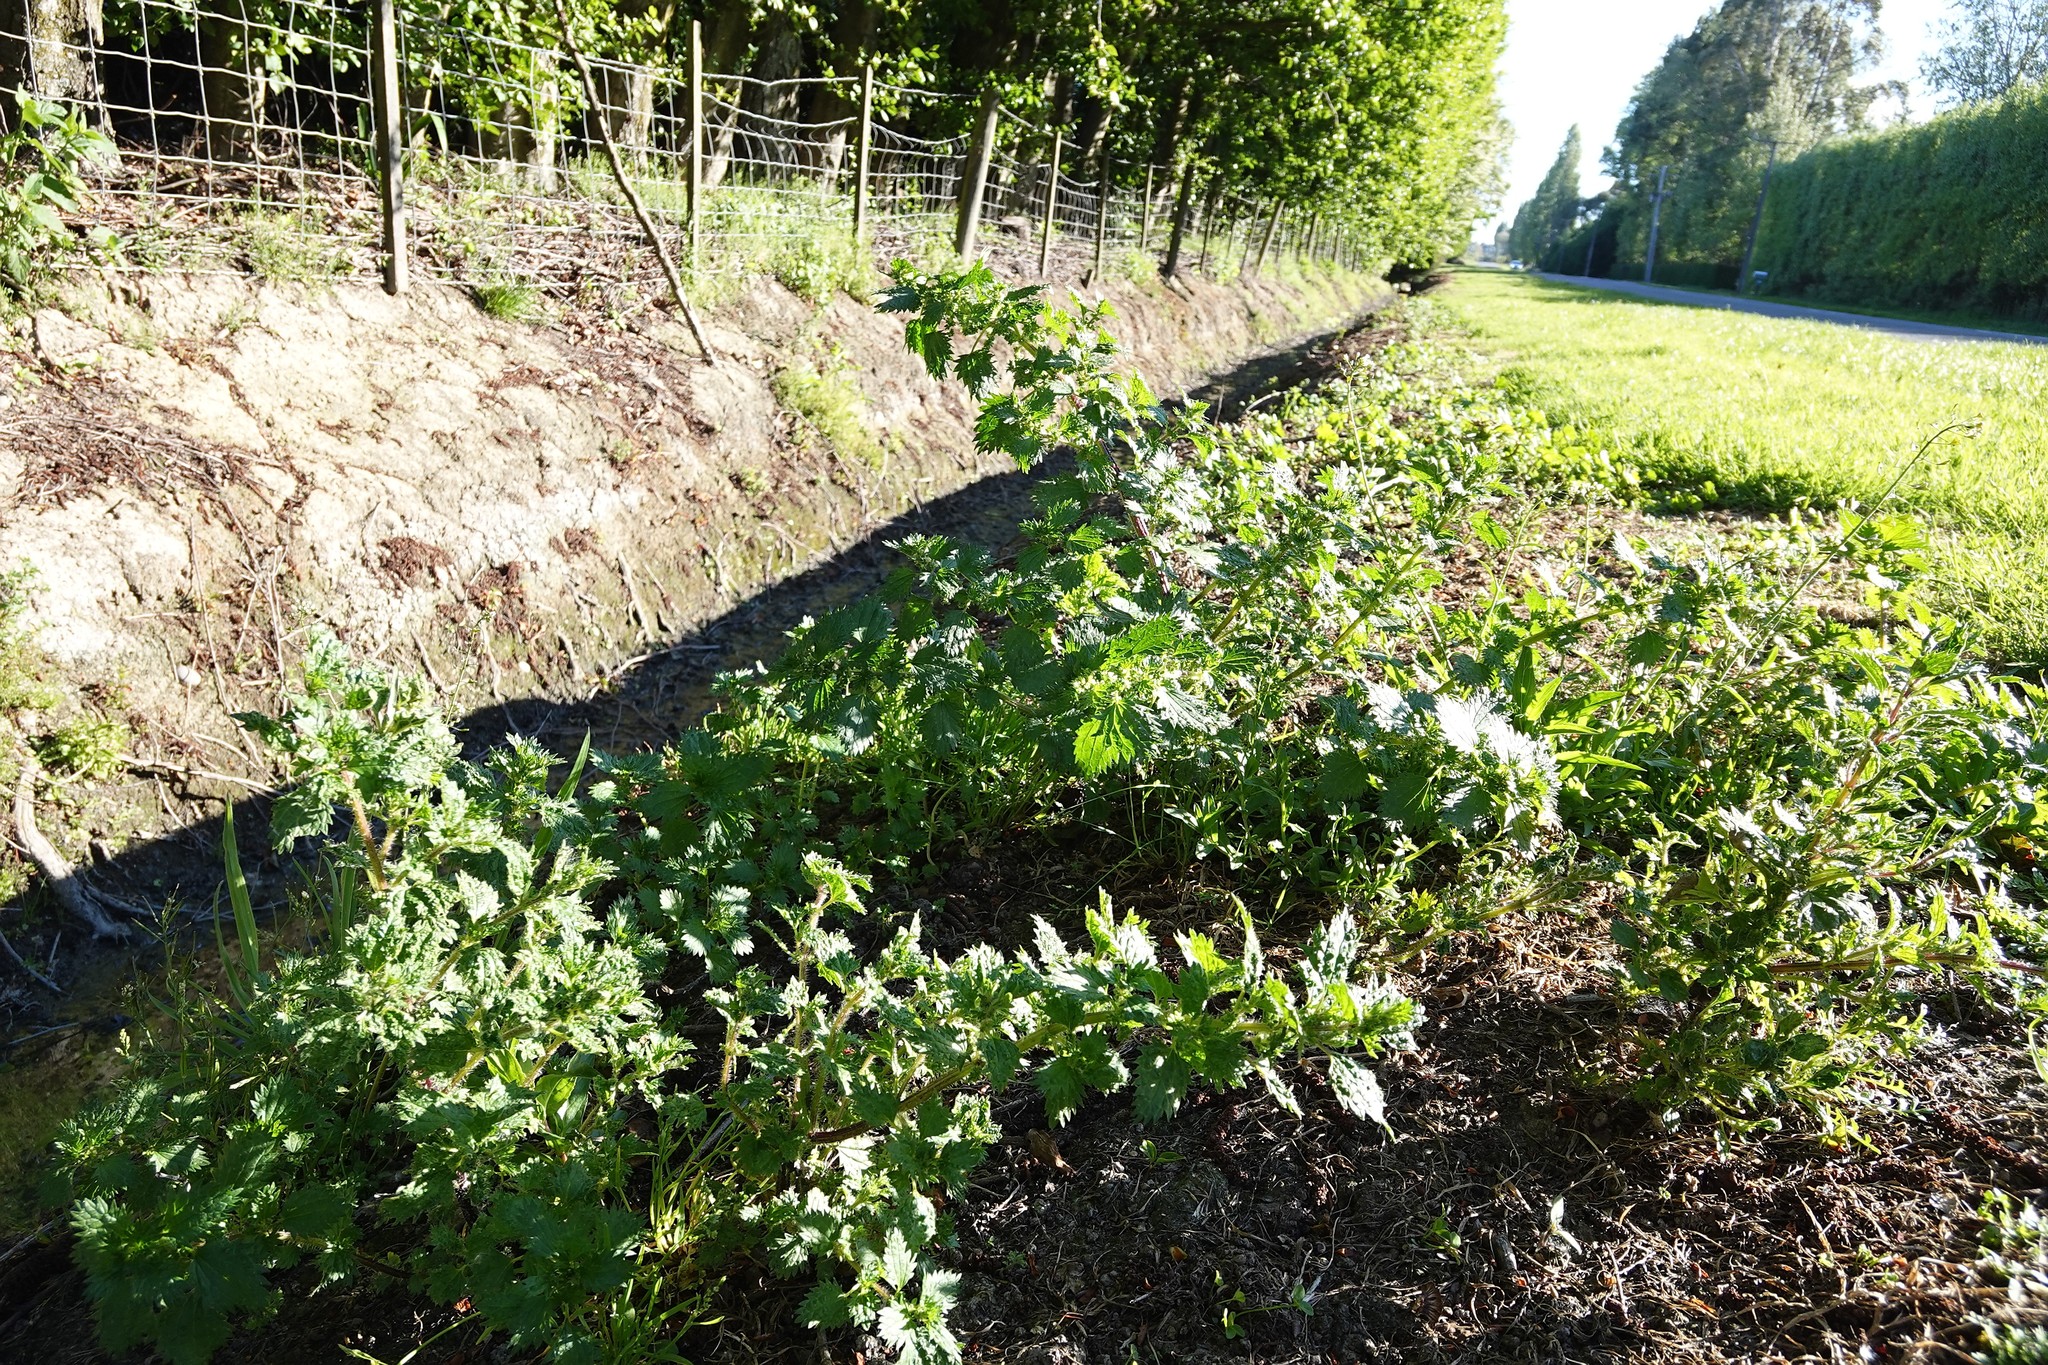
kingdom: Plantae
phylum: Tracheophyta
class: Magnoliopsida
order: Rosales
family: Urticaceae
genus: Urtica
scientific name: Urtica urens
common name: Dwarf nettle
